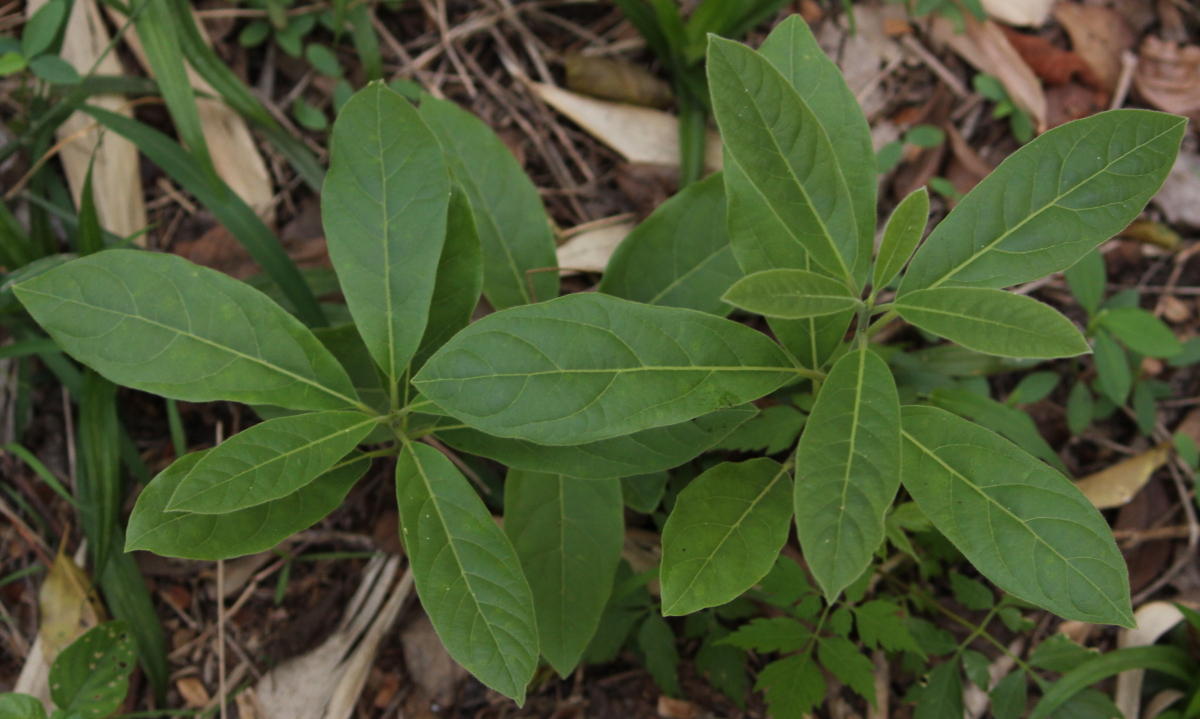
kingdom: Plantae
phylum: Tracheophyta
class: Magnoliopsida
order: Laurales
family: Lauraceae
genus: Litsea
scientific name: Litsea glutinosa
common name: Indian-laurel
